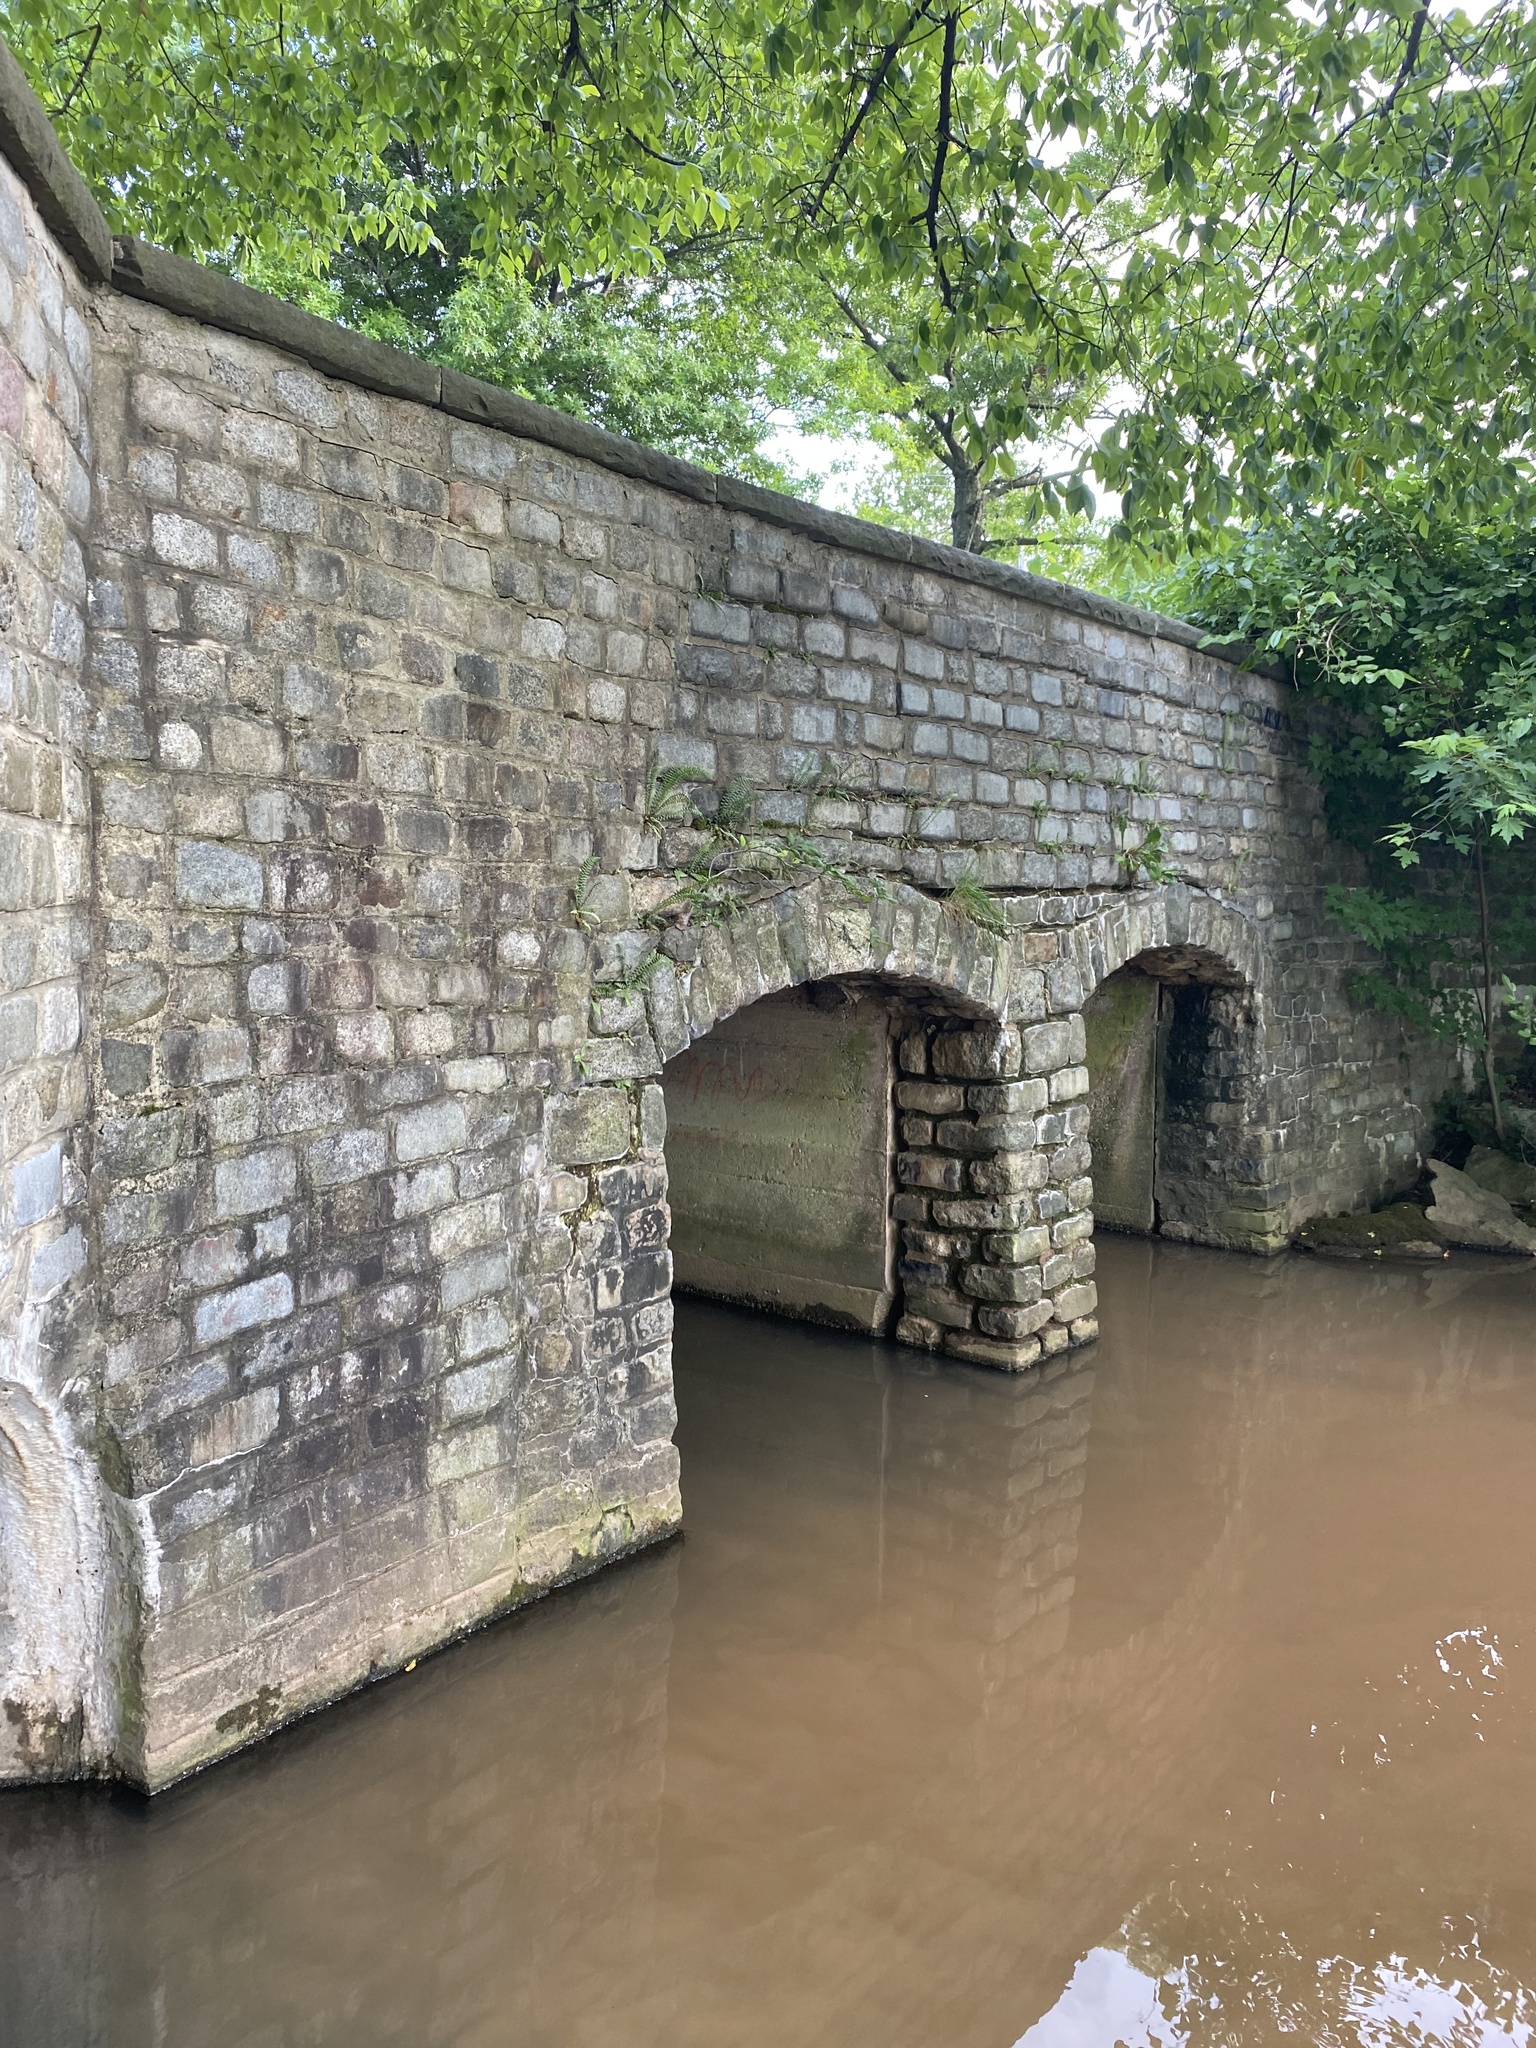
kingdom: Plantae
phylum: Tracheophyta
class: Polypodiopsida
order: Polypodiales
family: Aspleniaceae
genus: Asplenium
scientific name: Asplenium platyneuron
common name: Ebony spleenwort
